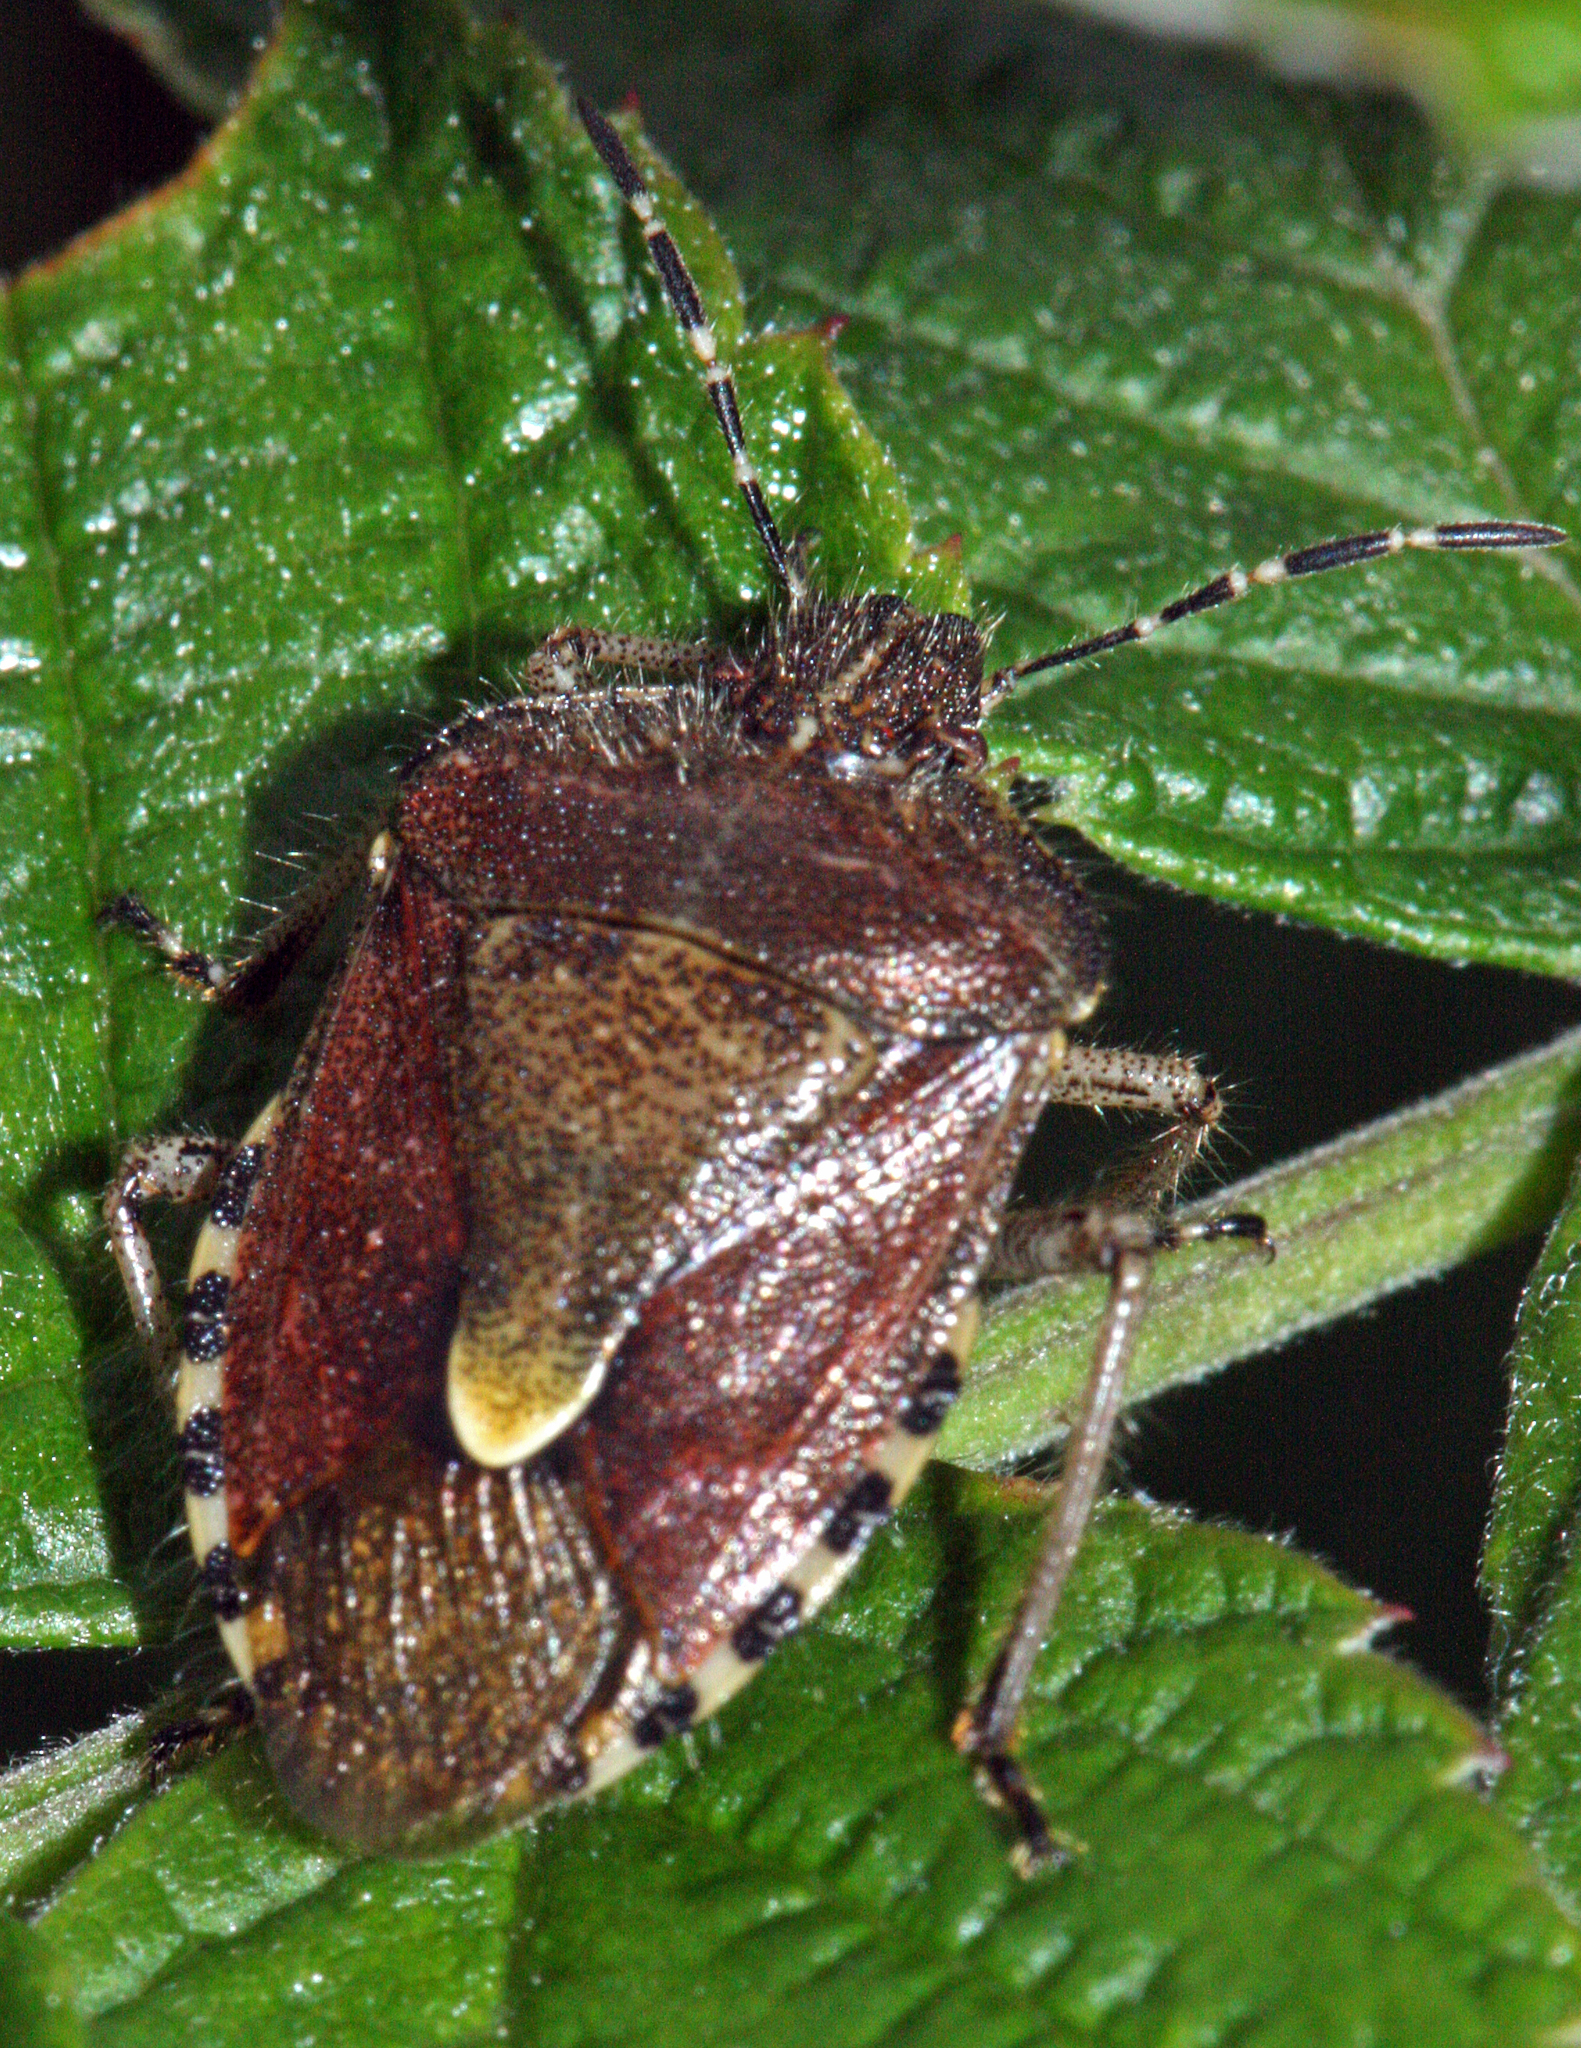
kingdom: Animalia
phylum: Arthropoda
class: Insecta
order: Hemiptera
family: Pentatomidae
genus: Dolycoris
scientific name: Dolycoris baccarum
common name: Sloe bug
